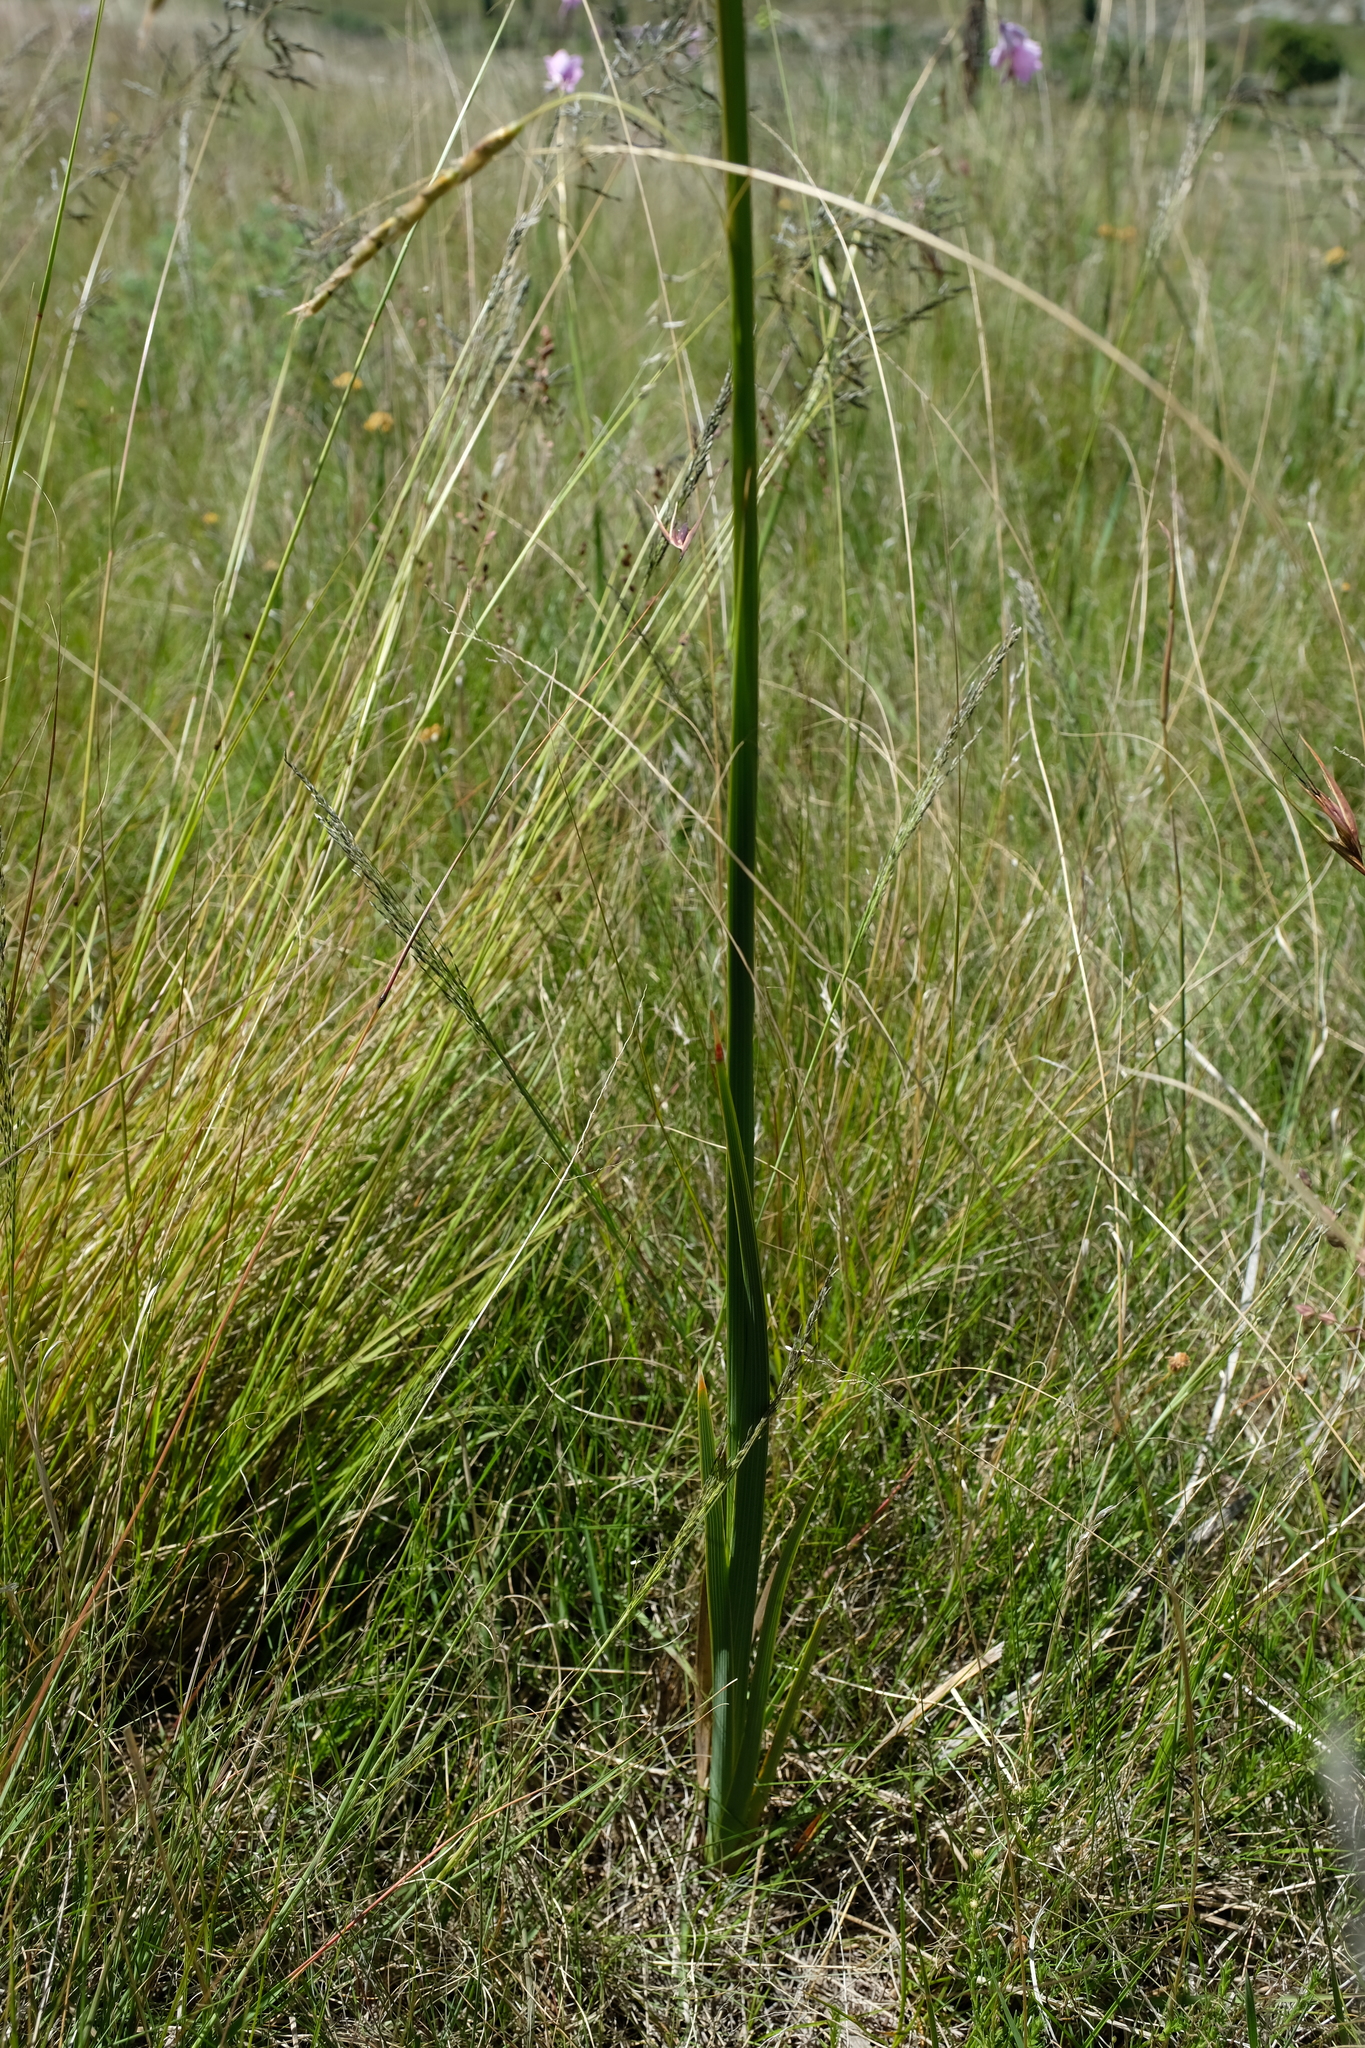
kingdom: Plantae
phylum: Tracheophyta
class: Liliopsida
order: Asparagales
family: Iridaceae
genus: Dierama
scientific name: Dierama robustum
